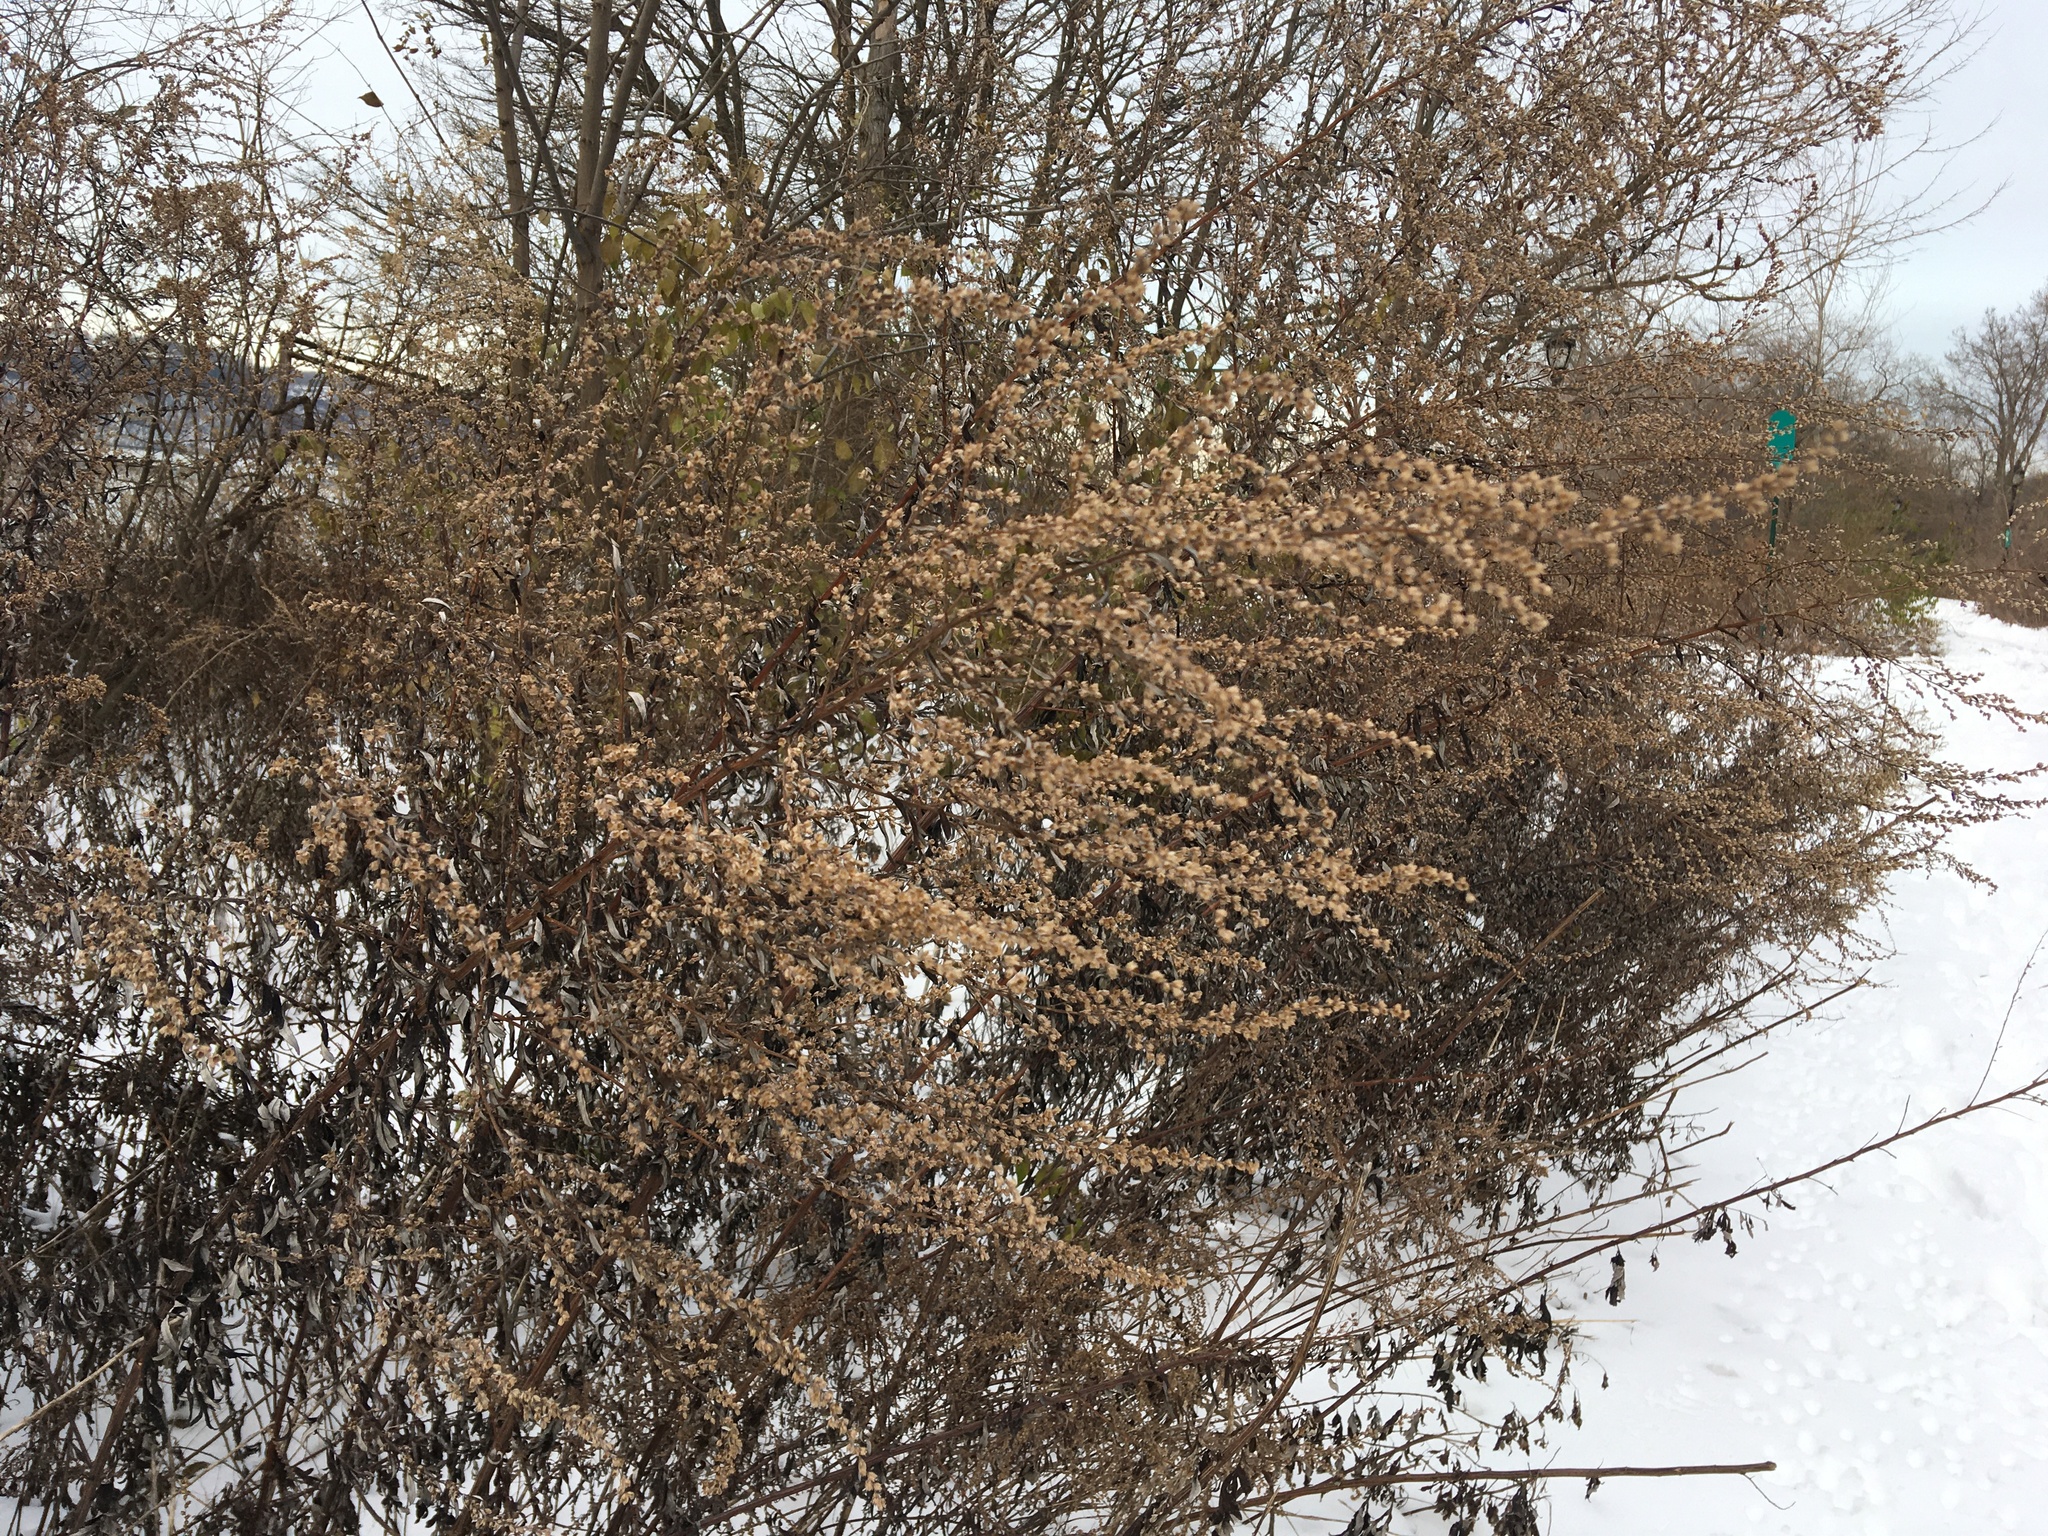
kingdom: Plantae
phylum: Tracheophyta
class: Magnoliopsida
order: Asterales
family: Asteraceae
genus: Artemisia
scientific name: Artemisia vulgaris
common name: Mugwort
